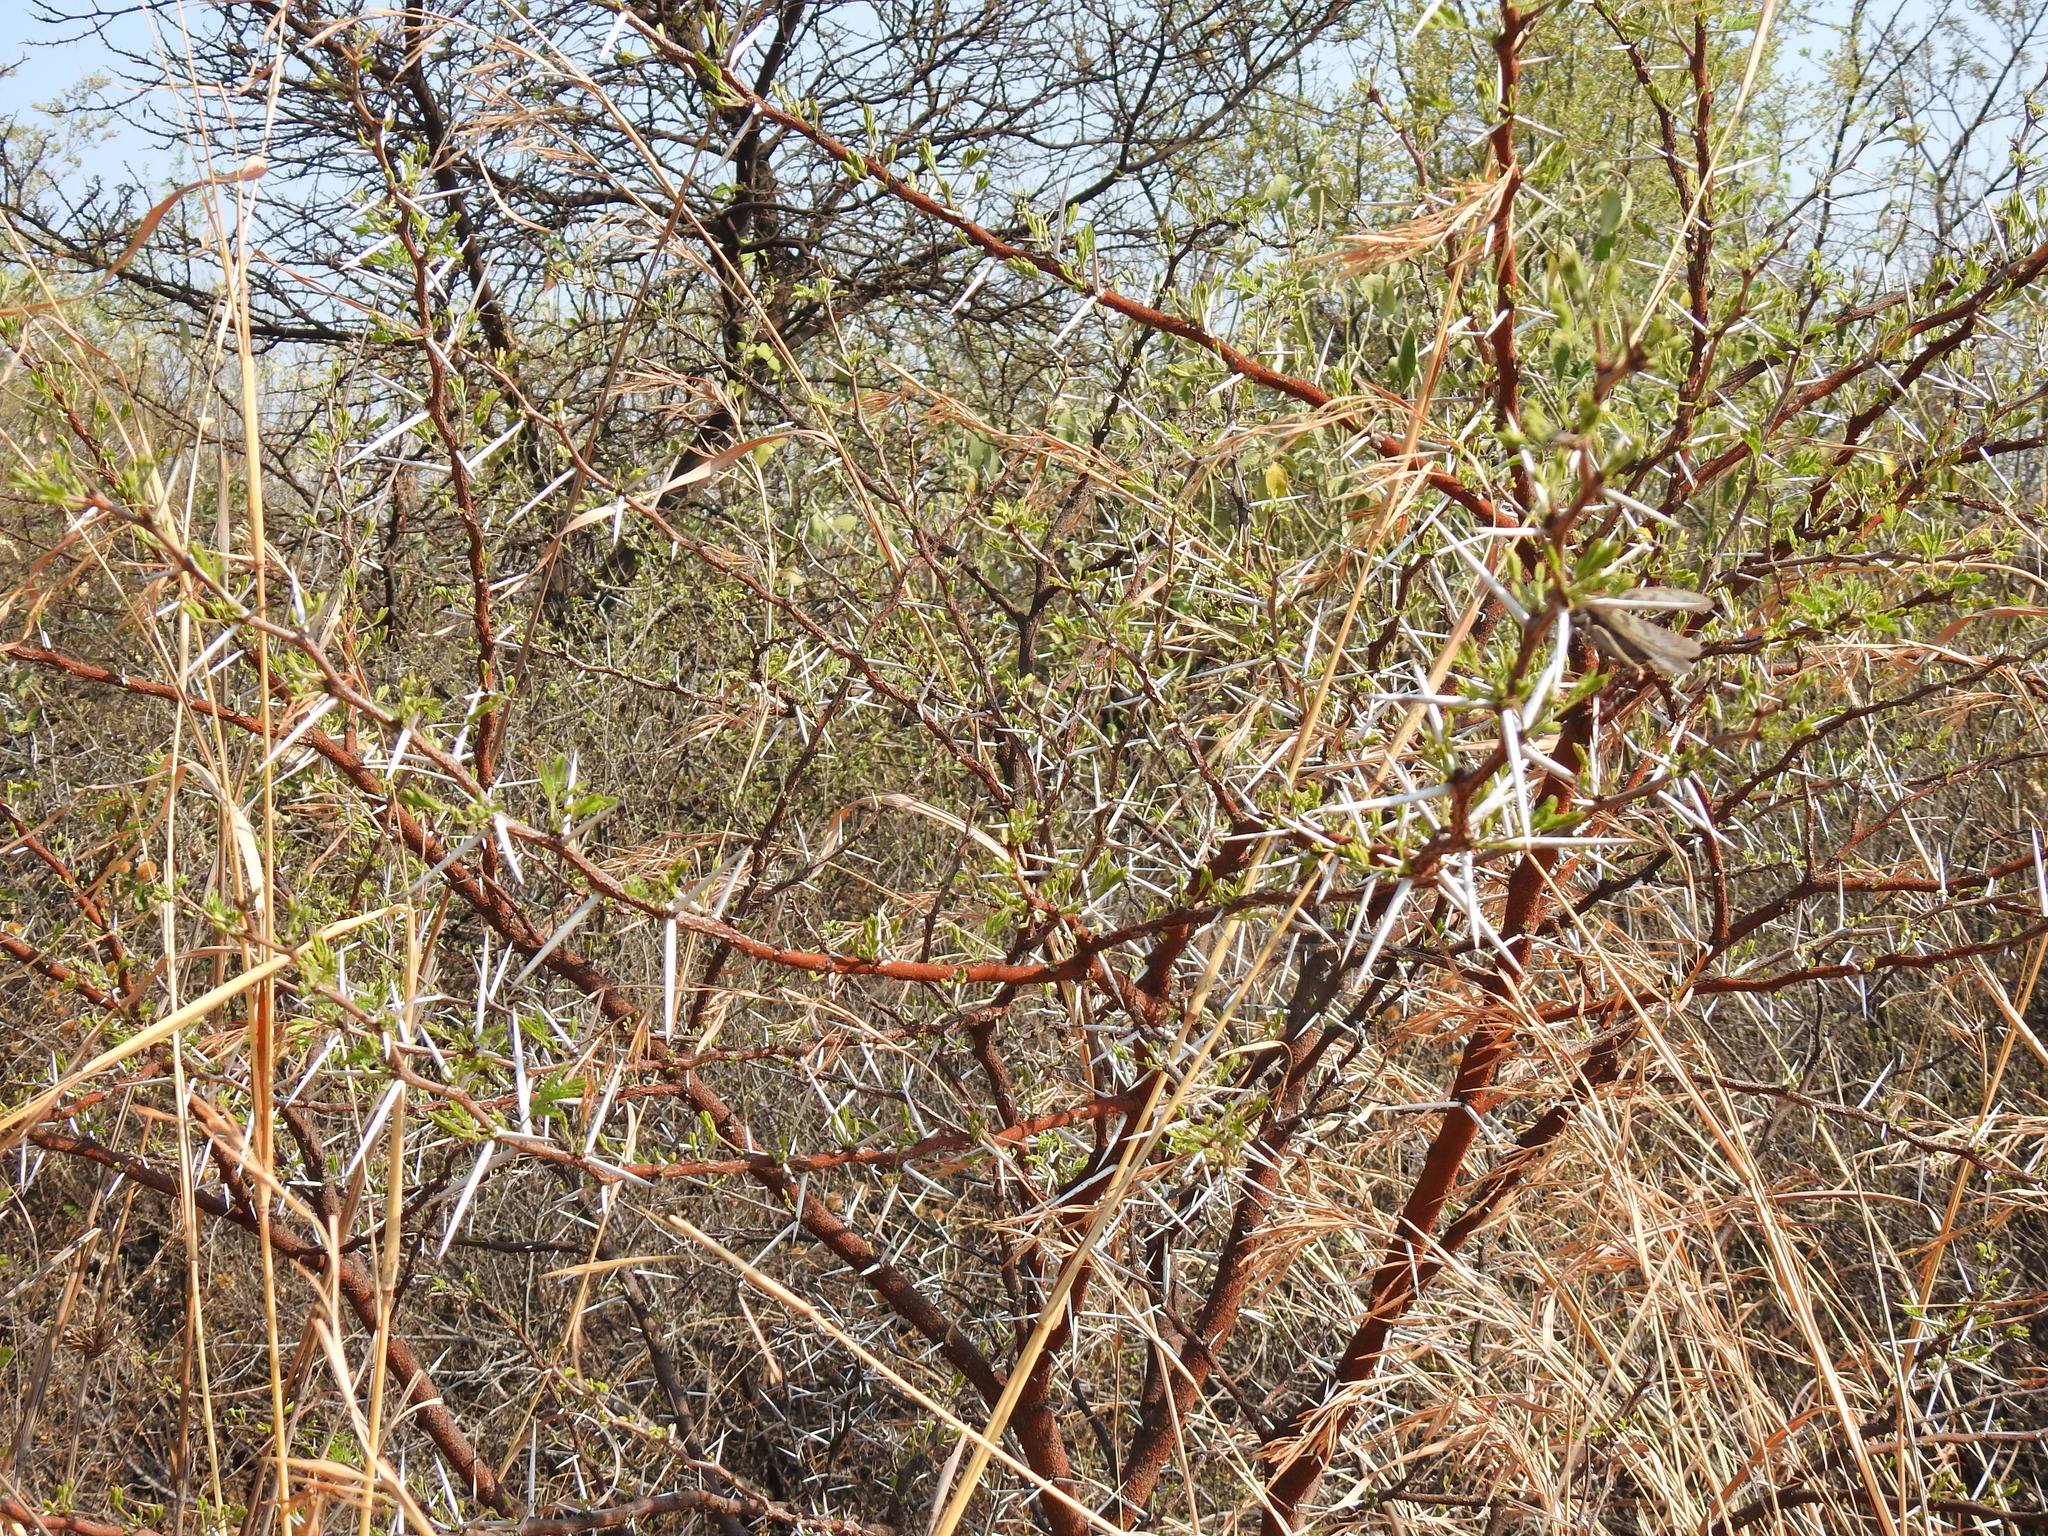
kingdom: Plantae
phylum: Tracheophyta
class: Magnoliopsida
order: Fabales
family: Fabaceae
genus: Vachellia
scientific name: Vachellia karroo
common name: Sweet thorn
